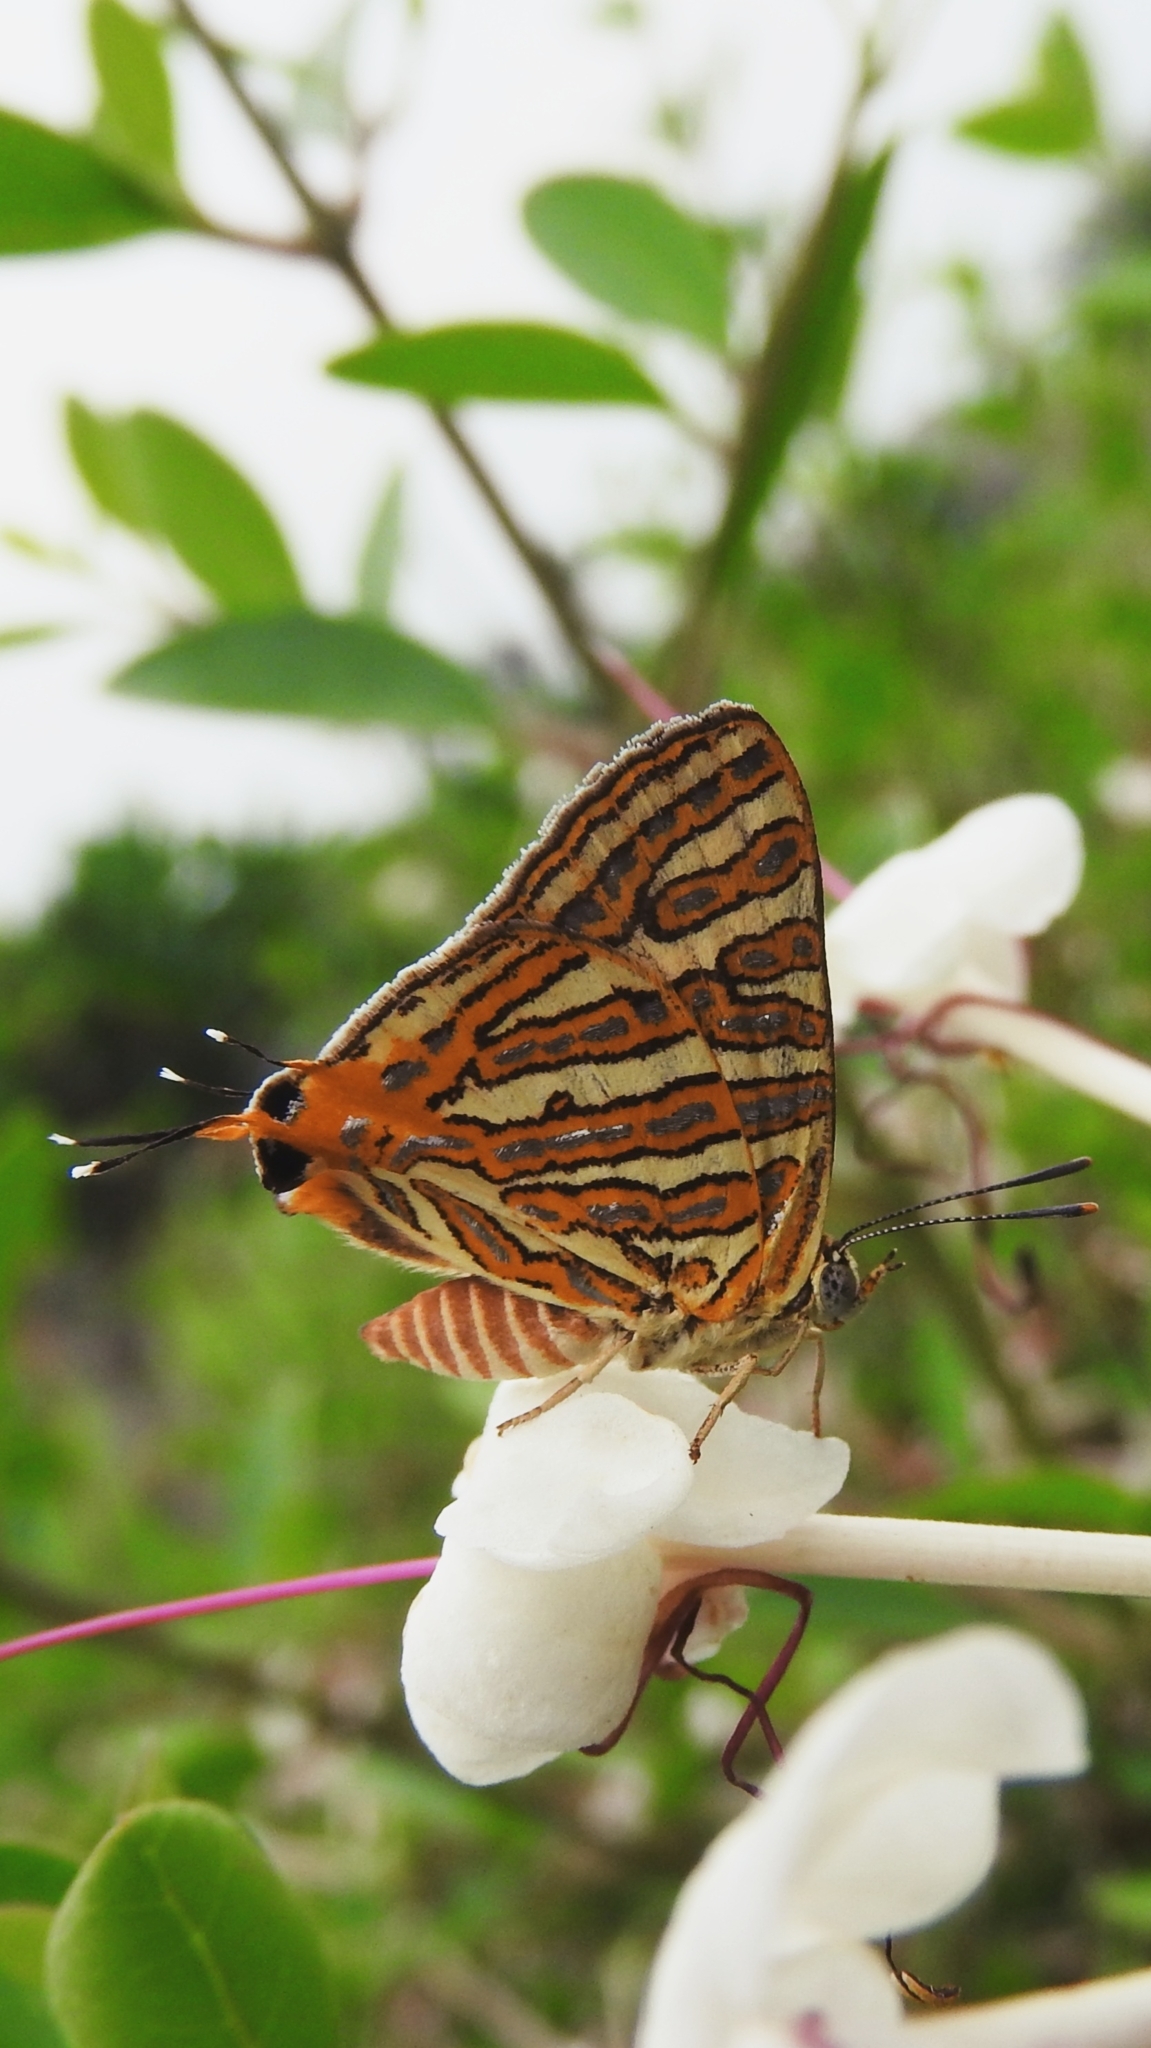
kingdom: Animalia
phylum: Arthropoda
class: Insecta
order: Lepidoptera
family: Lycaenidae
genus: Cigaritis
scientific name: Cigaritis vulcanus
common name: Common silverline
